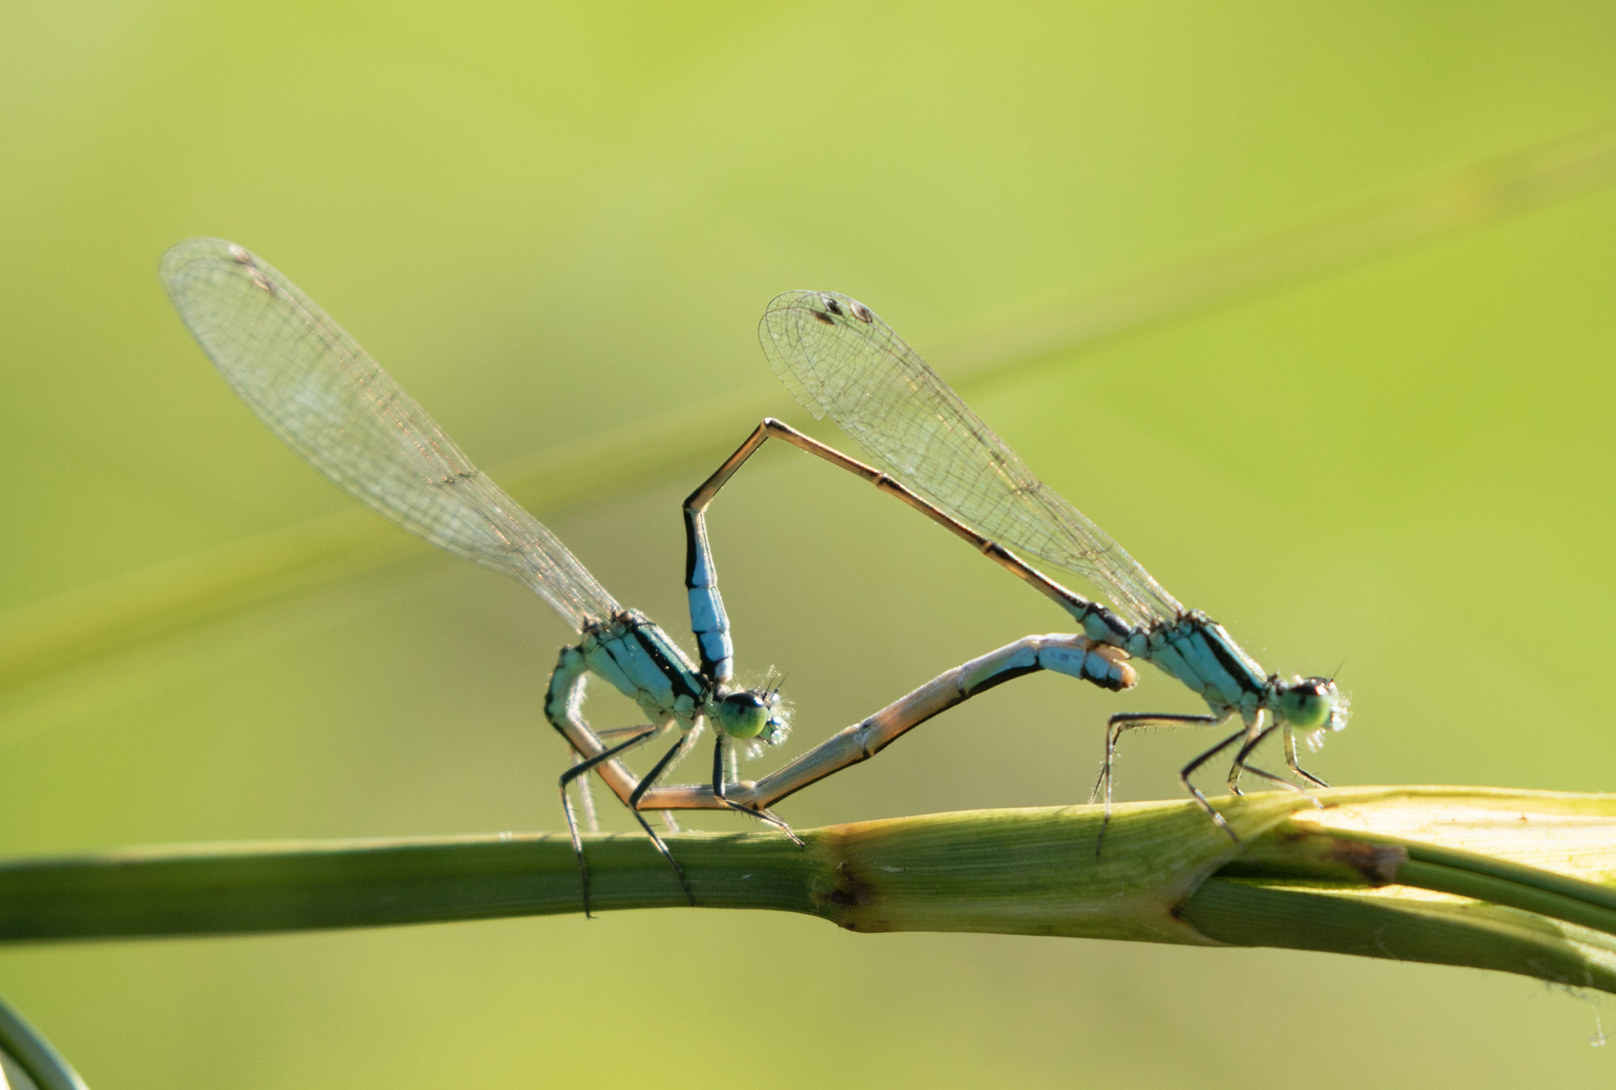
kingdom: Animalia
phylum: Arthropoda
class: Insecta
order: Odonata
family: Coenagrionidae
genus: Ischnura
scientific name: Ischnura elegans
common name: Blue-tailed damselfly
